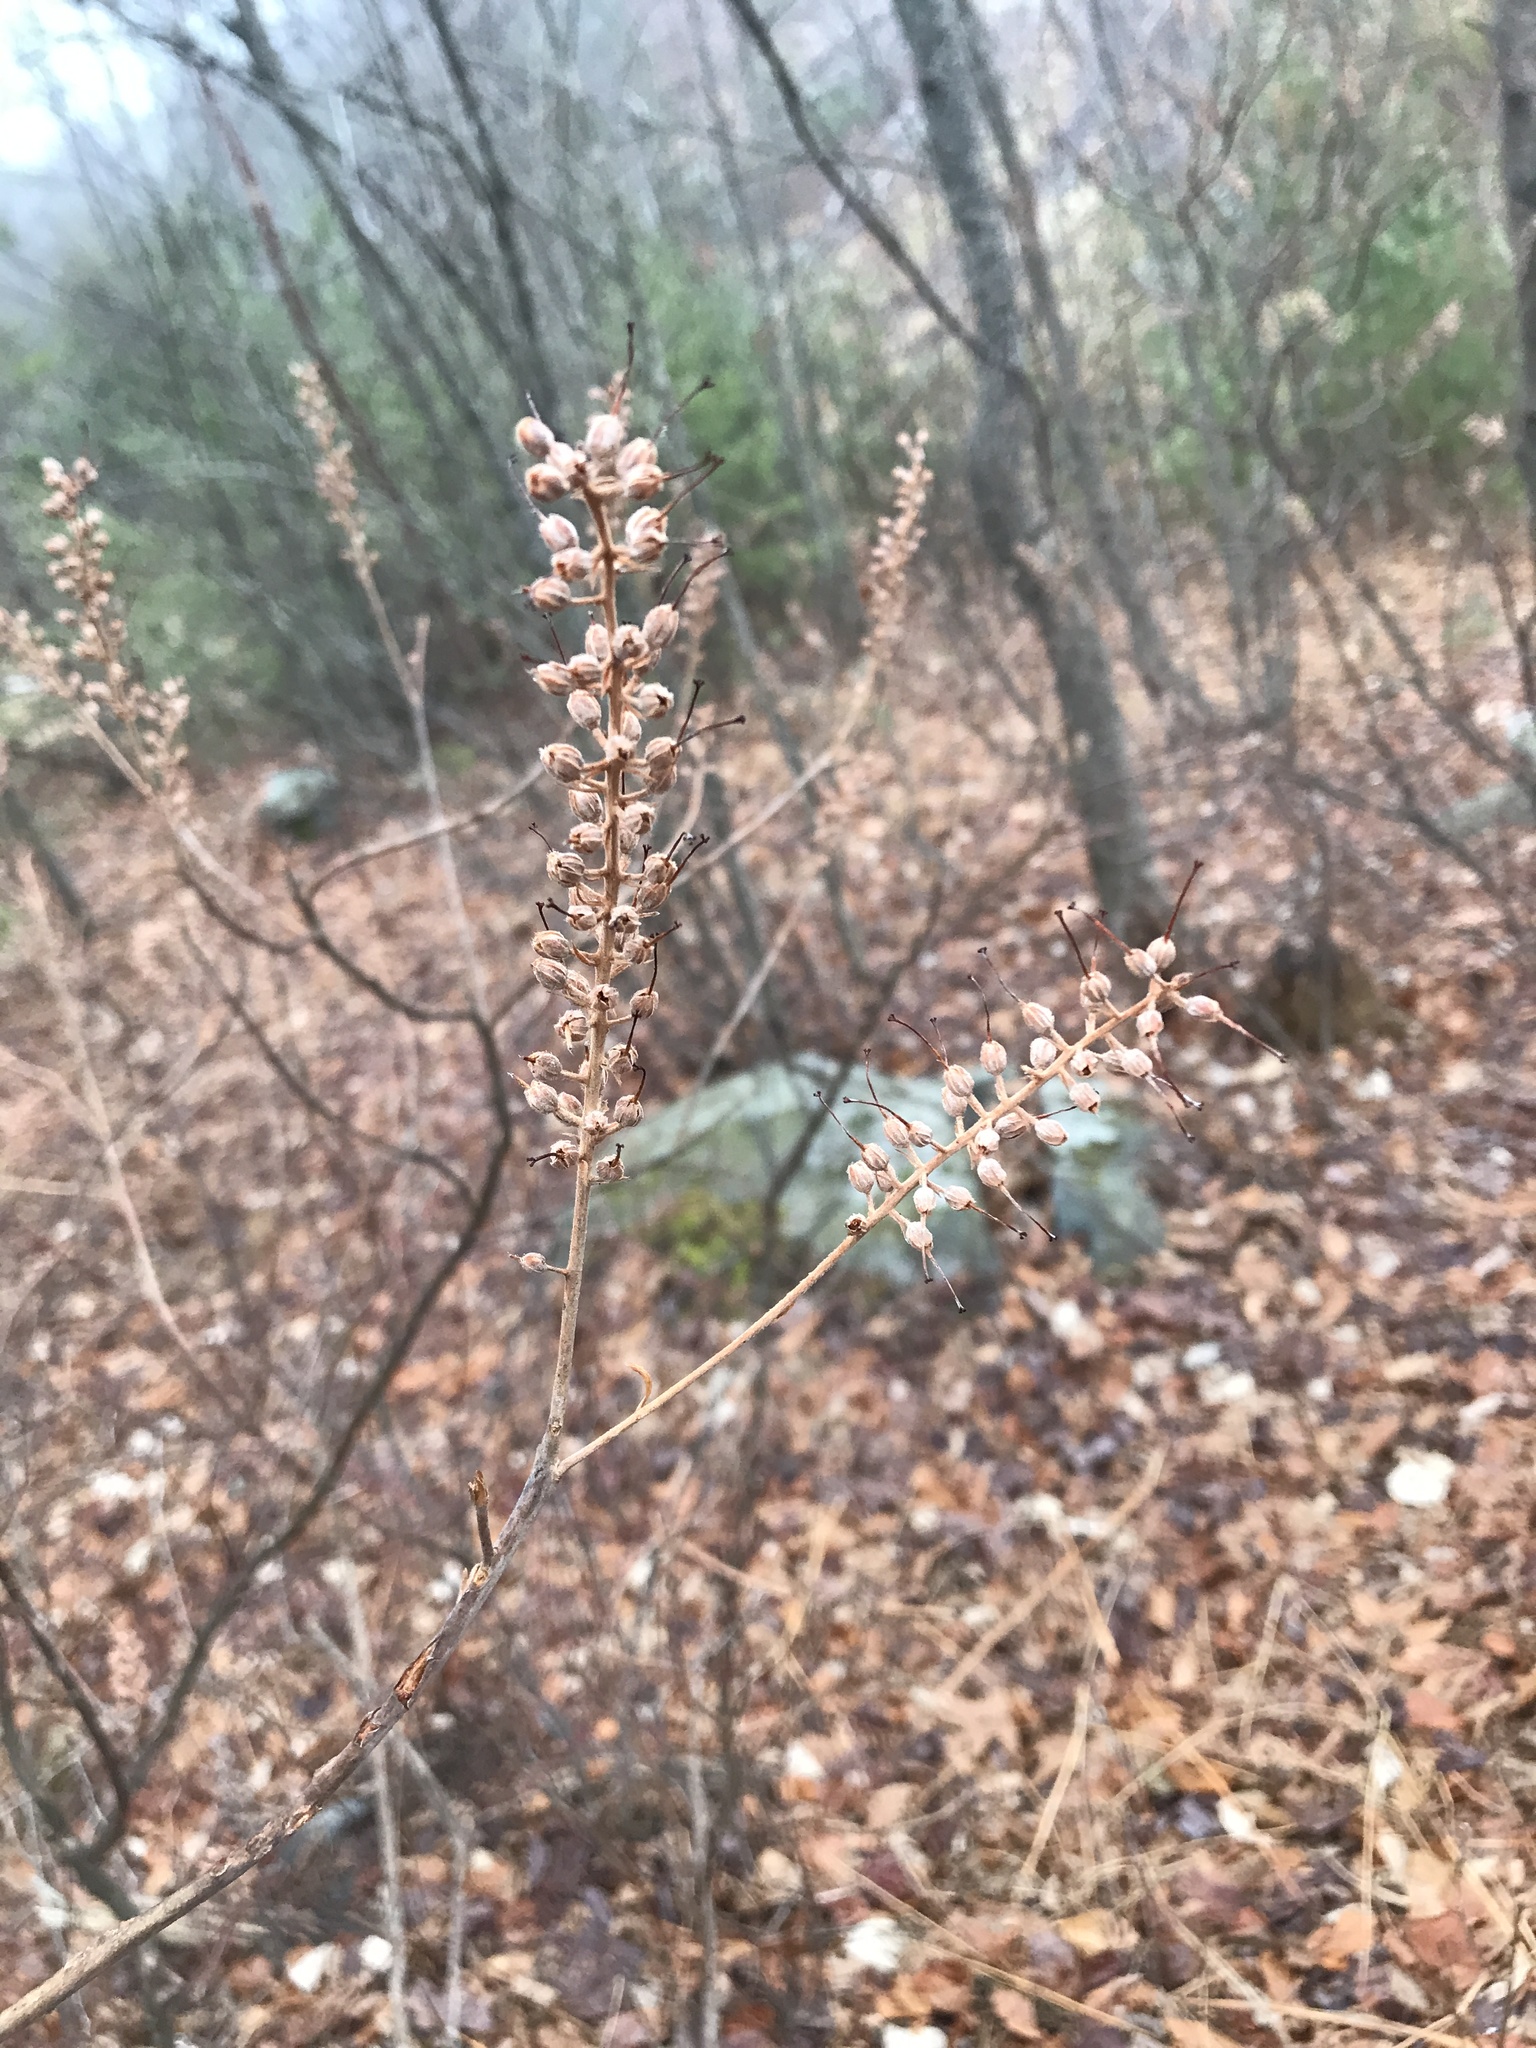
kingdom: Plantae
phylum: Tracheophyta
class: Magnoliopsida
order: Ericales
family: Clethraceae
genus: Clethra
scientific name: Clethra alnifolia
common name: Sweet pepperbush
